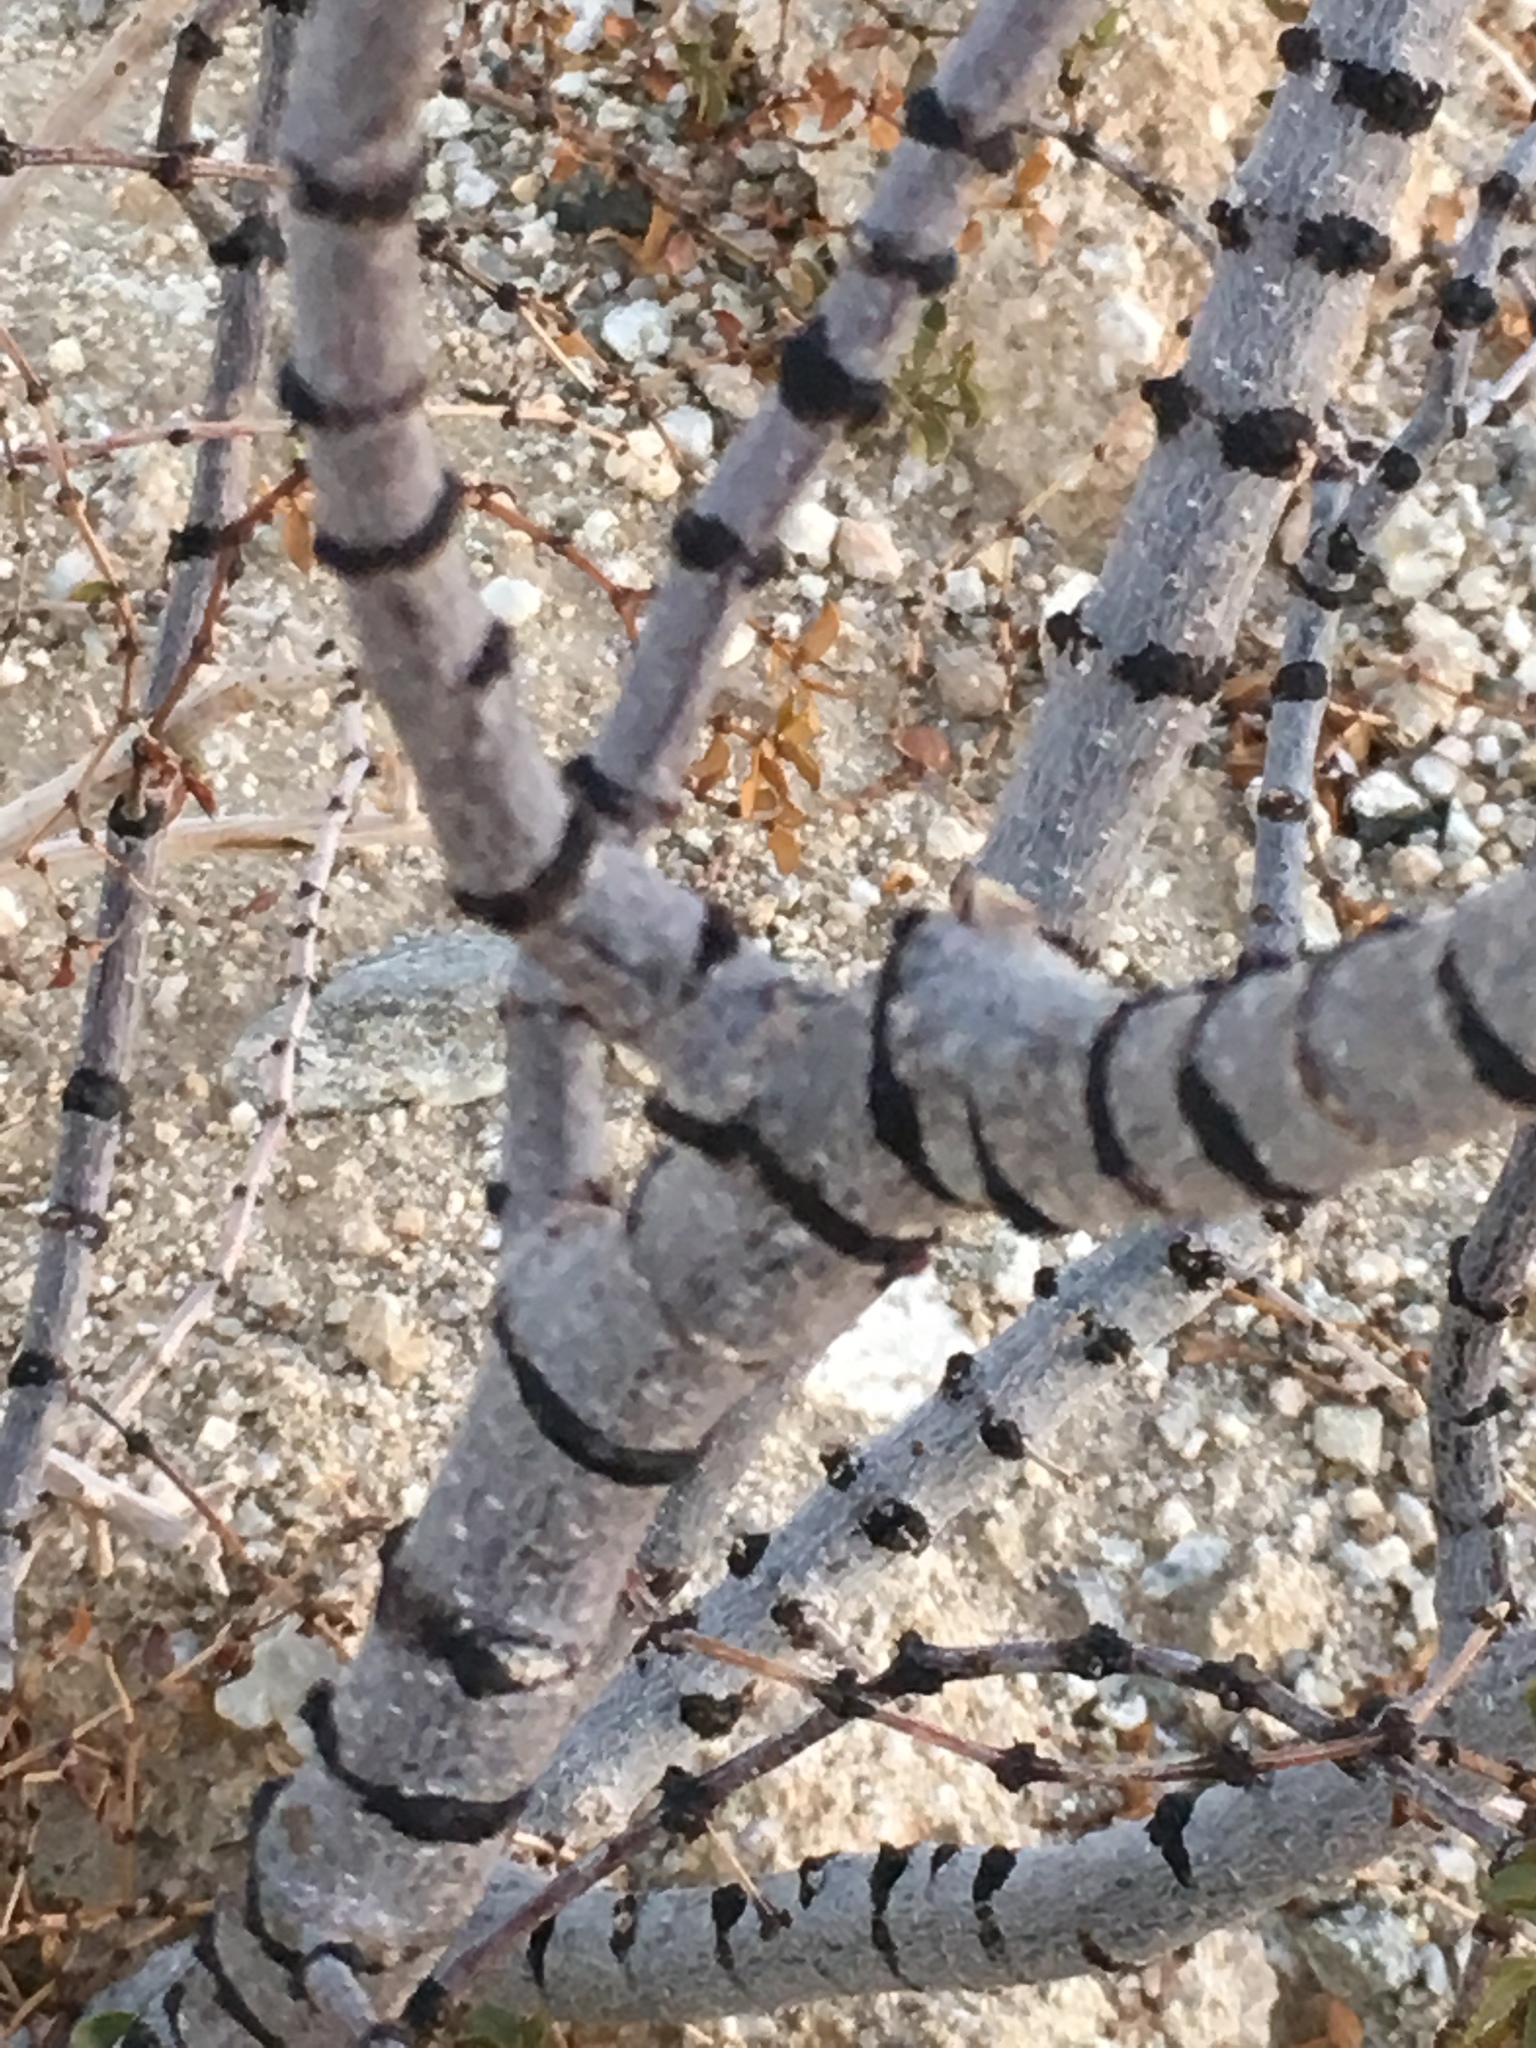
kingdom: Plantae
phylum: Tracheophyta
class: Magnoliopsida
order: Zygophyllales
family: Zygophyllaceae
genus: Larrea
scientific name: Larrea tridentata
